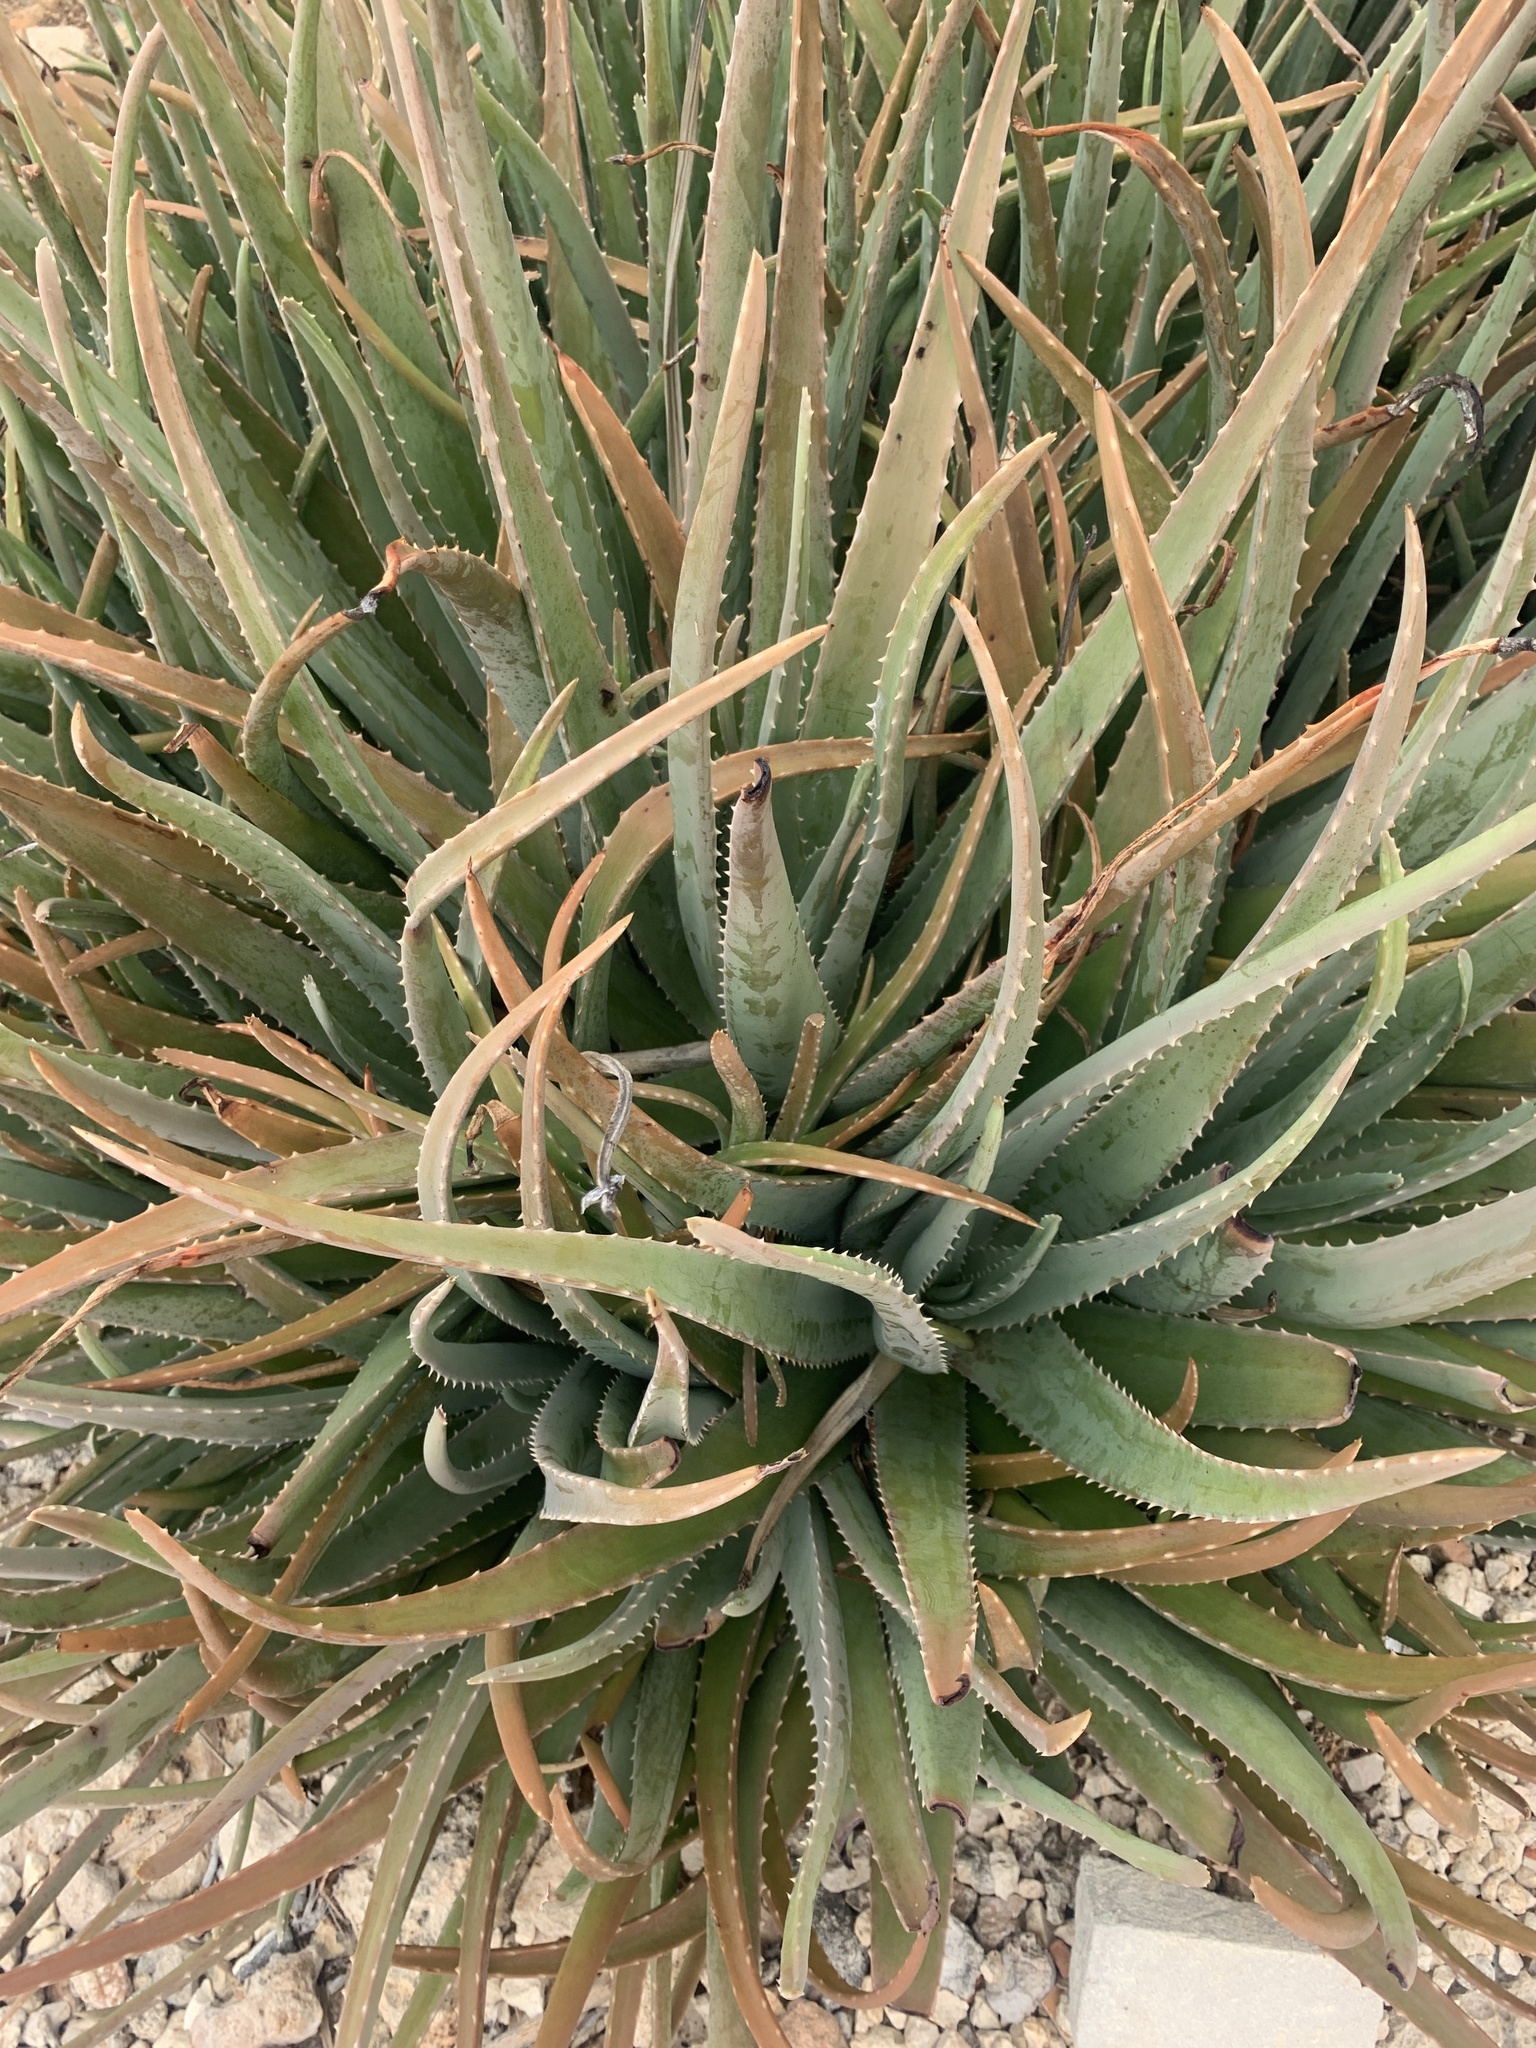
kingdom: Plantae
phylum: Tracheophyta
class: Liliopsida
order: Asparagales
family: Asphodelaceae
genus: Aloe
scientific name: Aloe vera
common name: Barbados aloe
